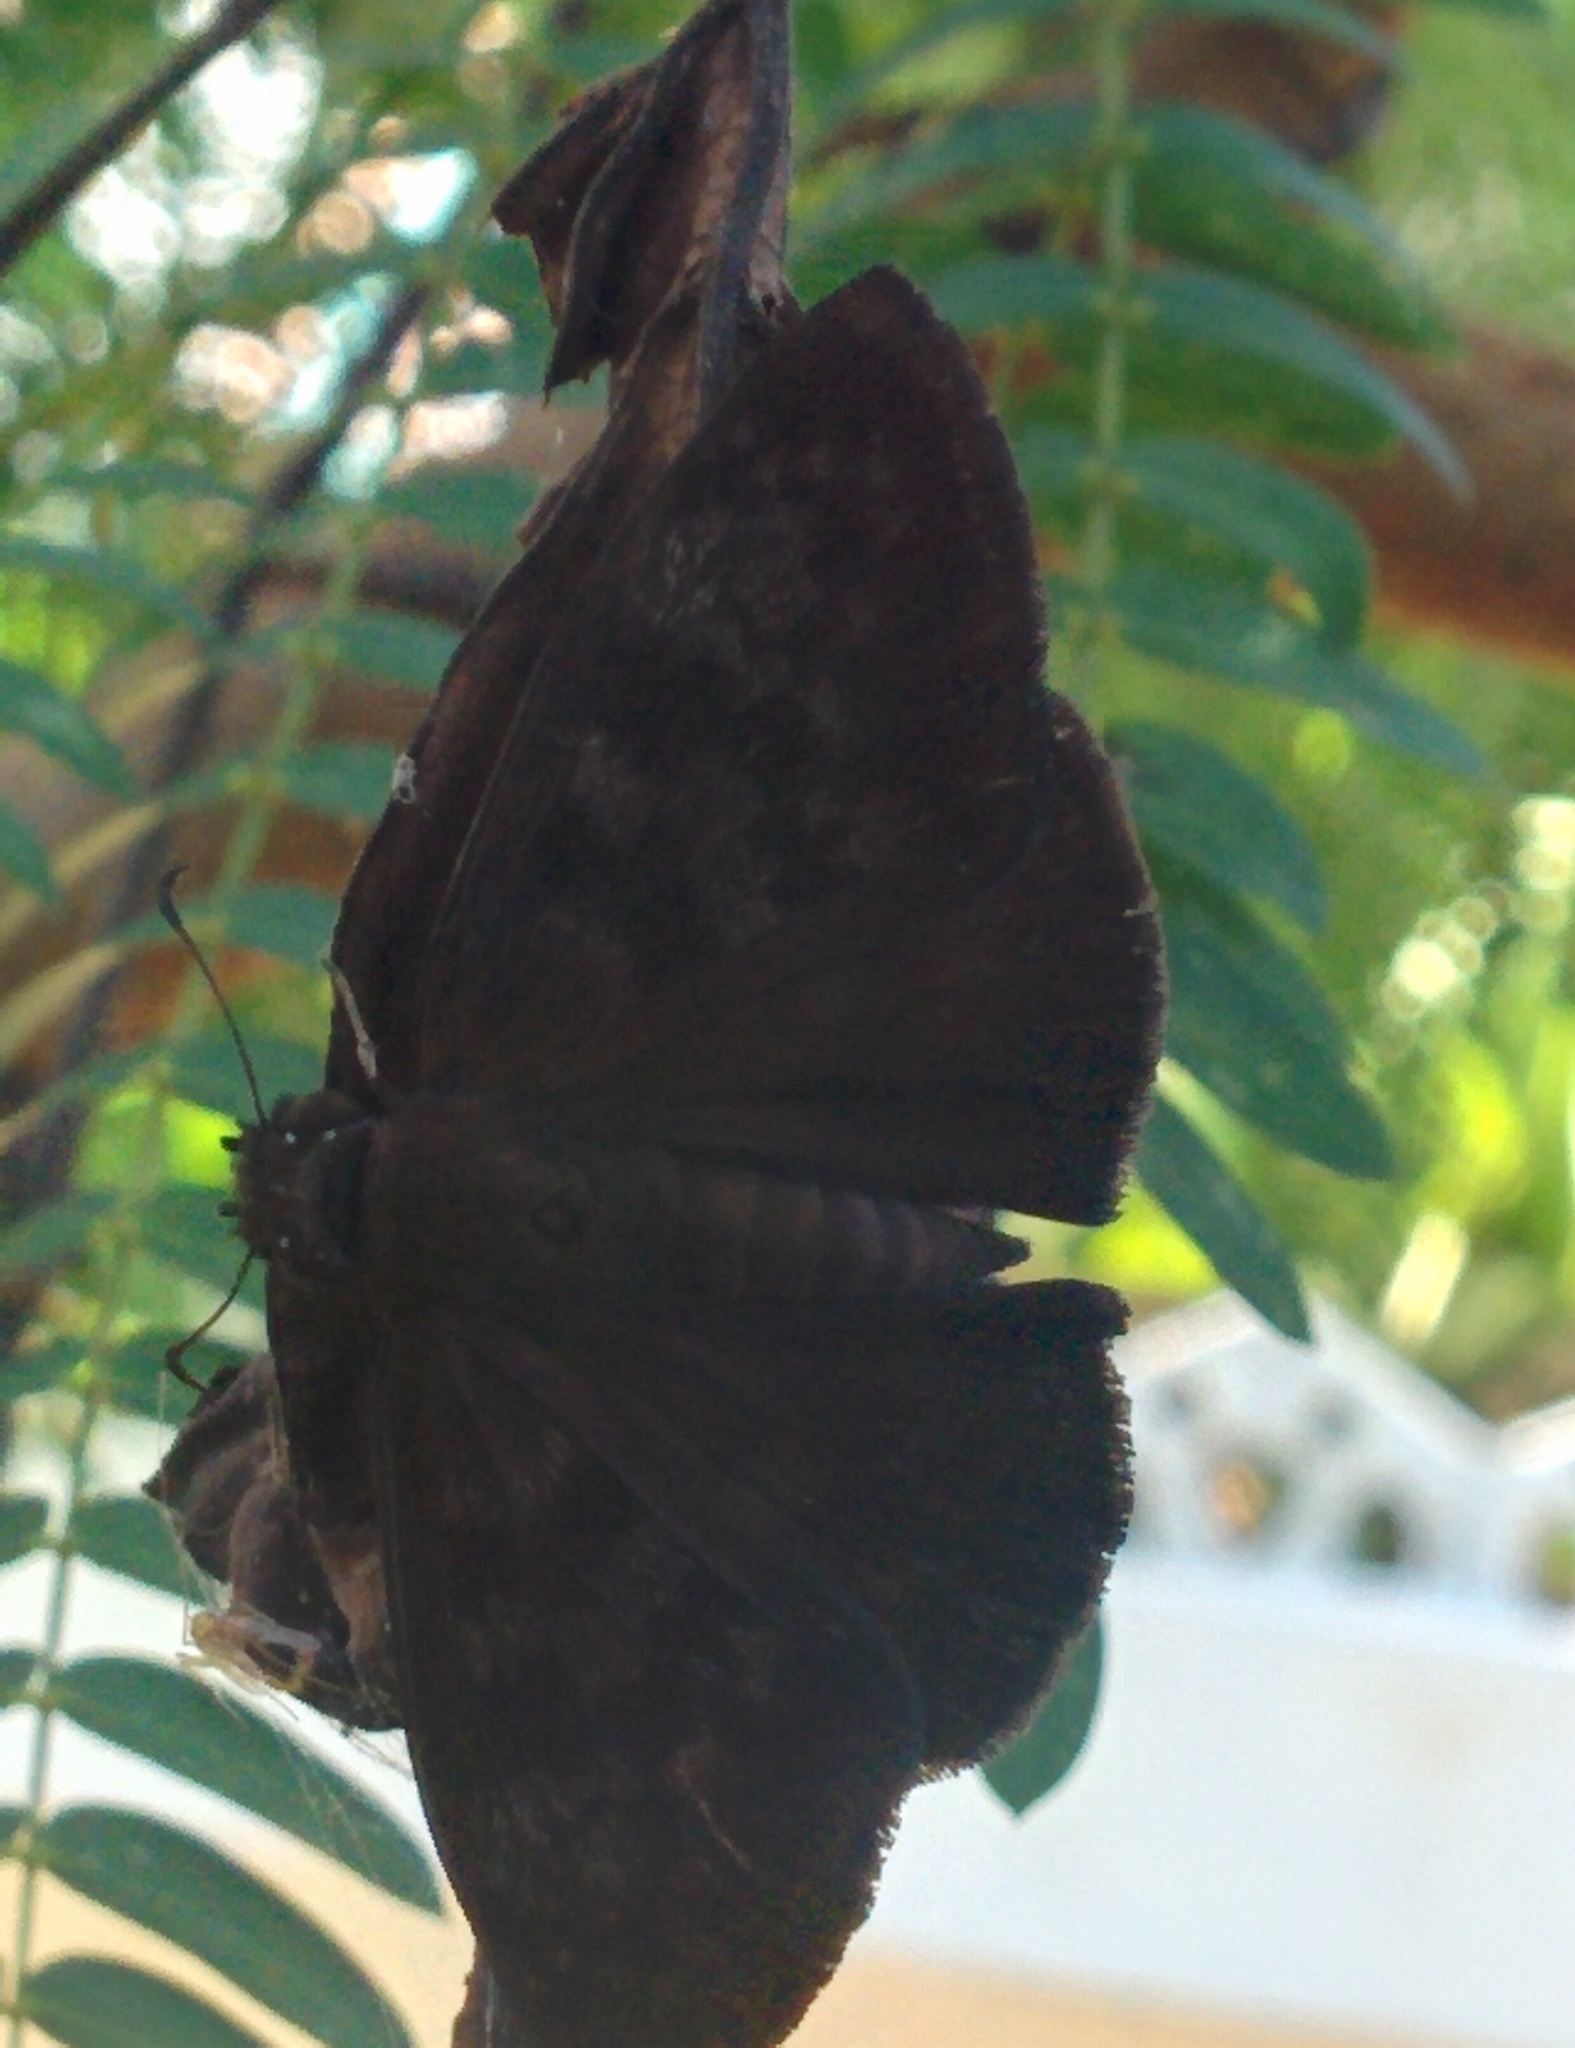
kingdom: Animalia
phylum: Arthropoda
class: Insecta
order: Lepidoptera
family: Hesperiidae
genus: Anastrus
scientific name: Anastrus Echelatus sempiternus
